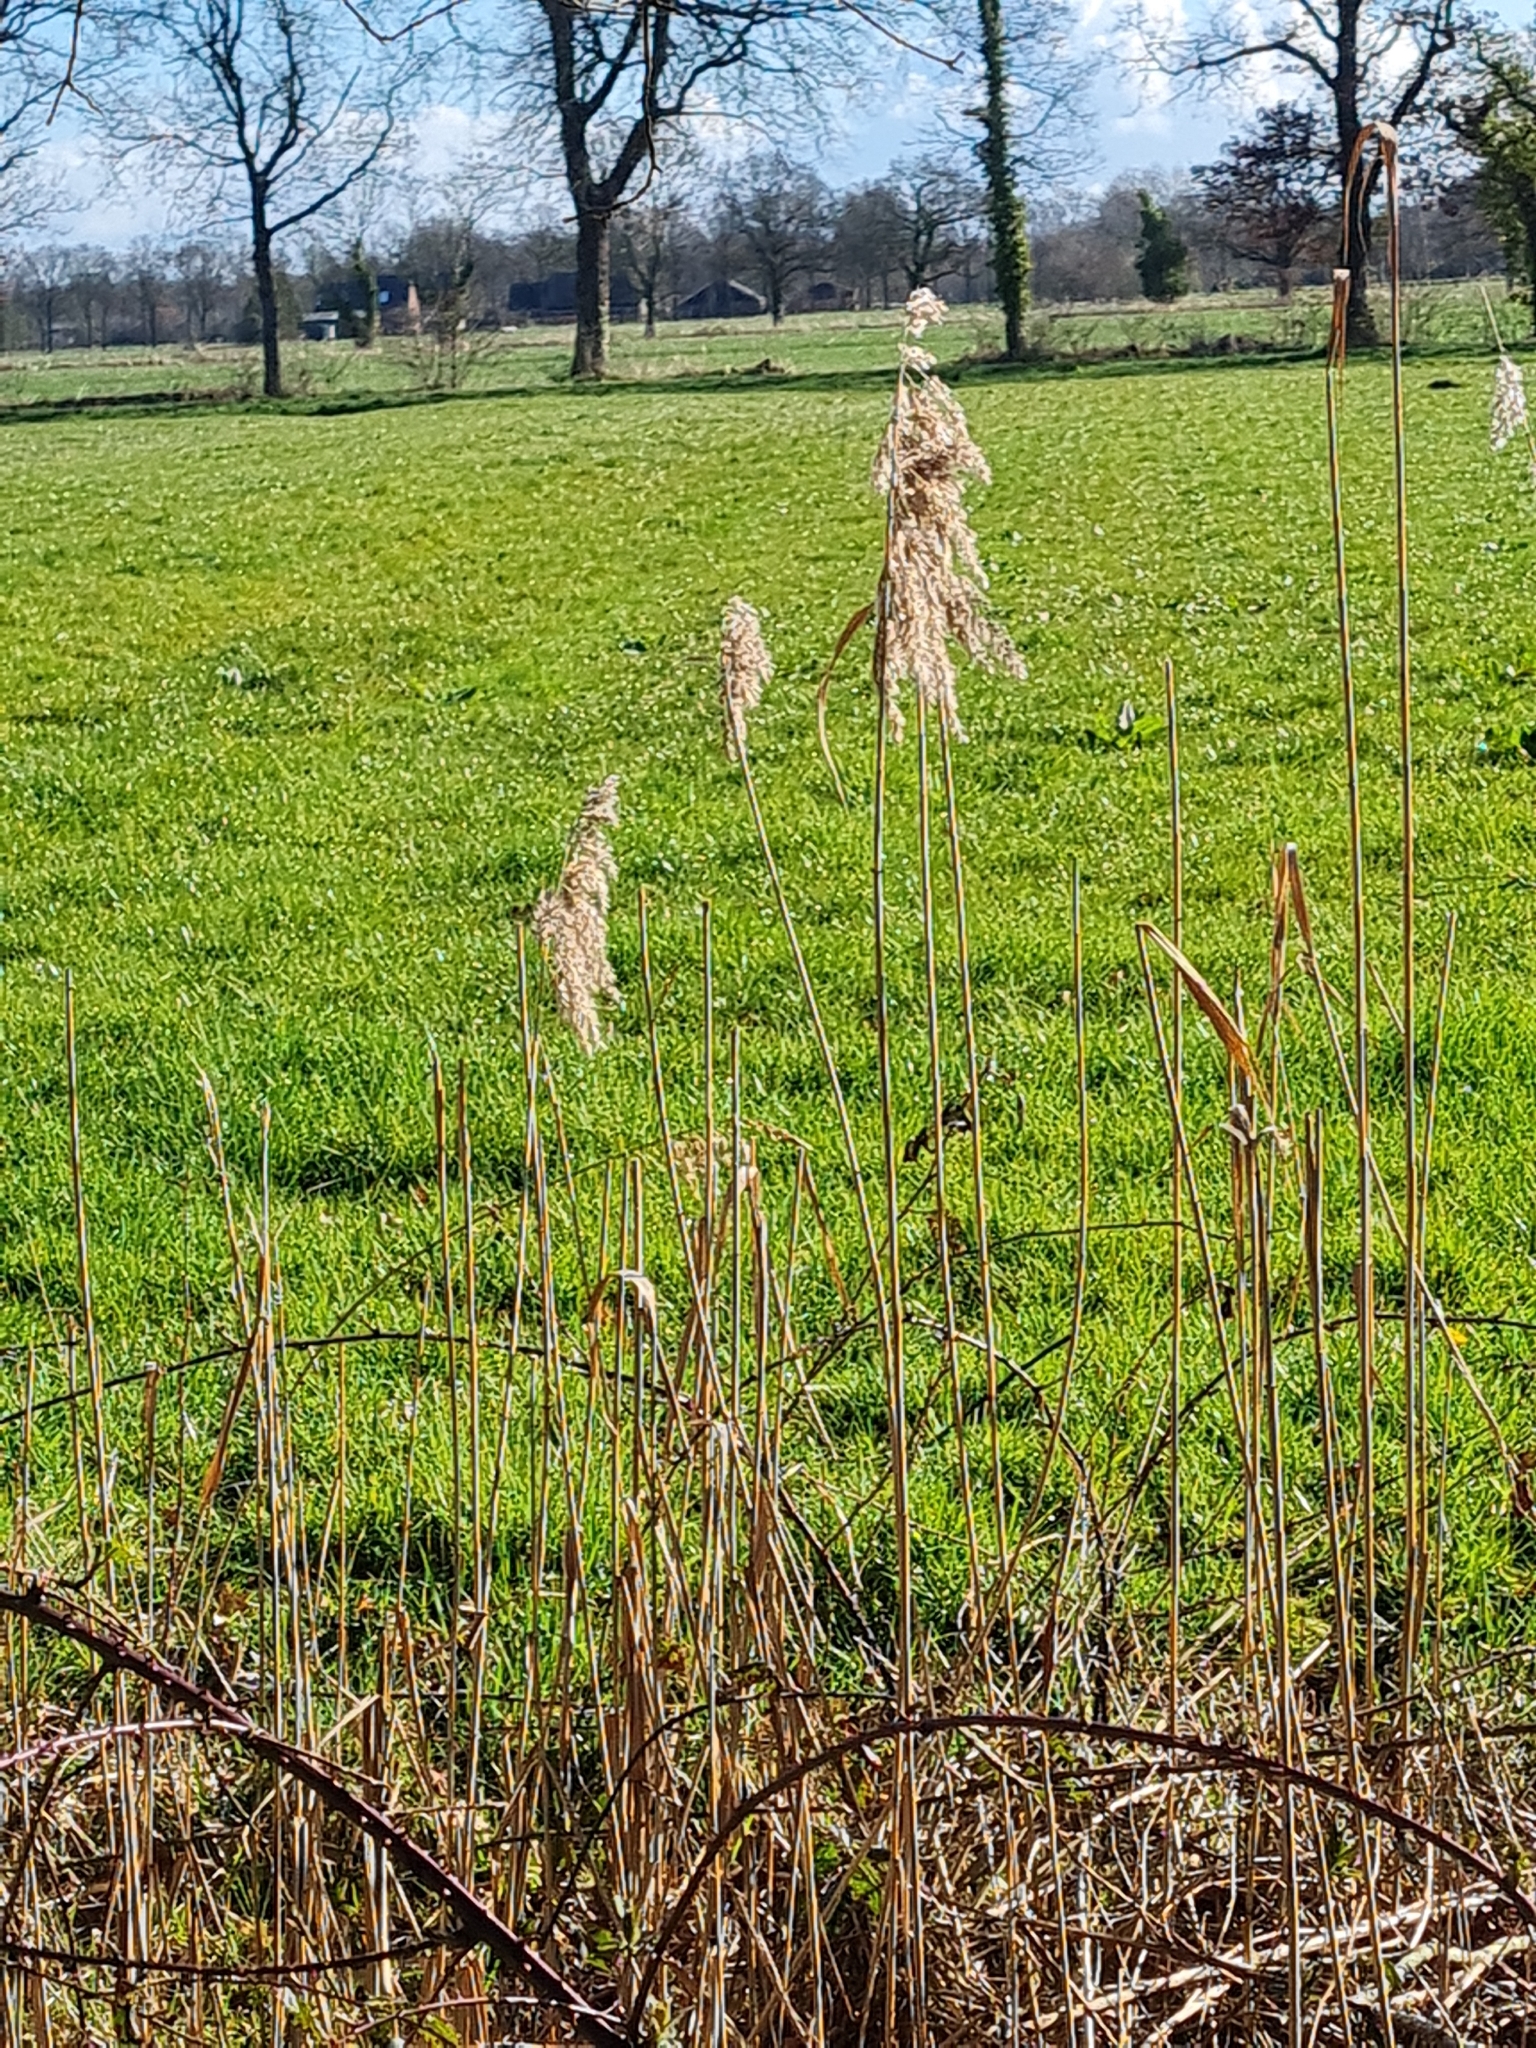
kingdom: Plantae
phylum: Tracheophyta
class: Liliopsida
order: Poales
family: Poaceae
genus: Phragmites
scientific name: Phragmites australis
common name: Common reed
